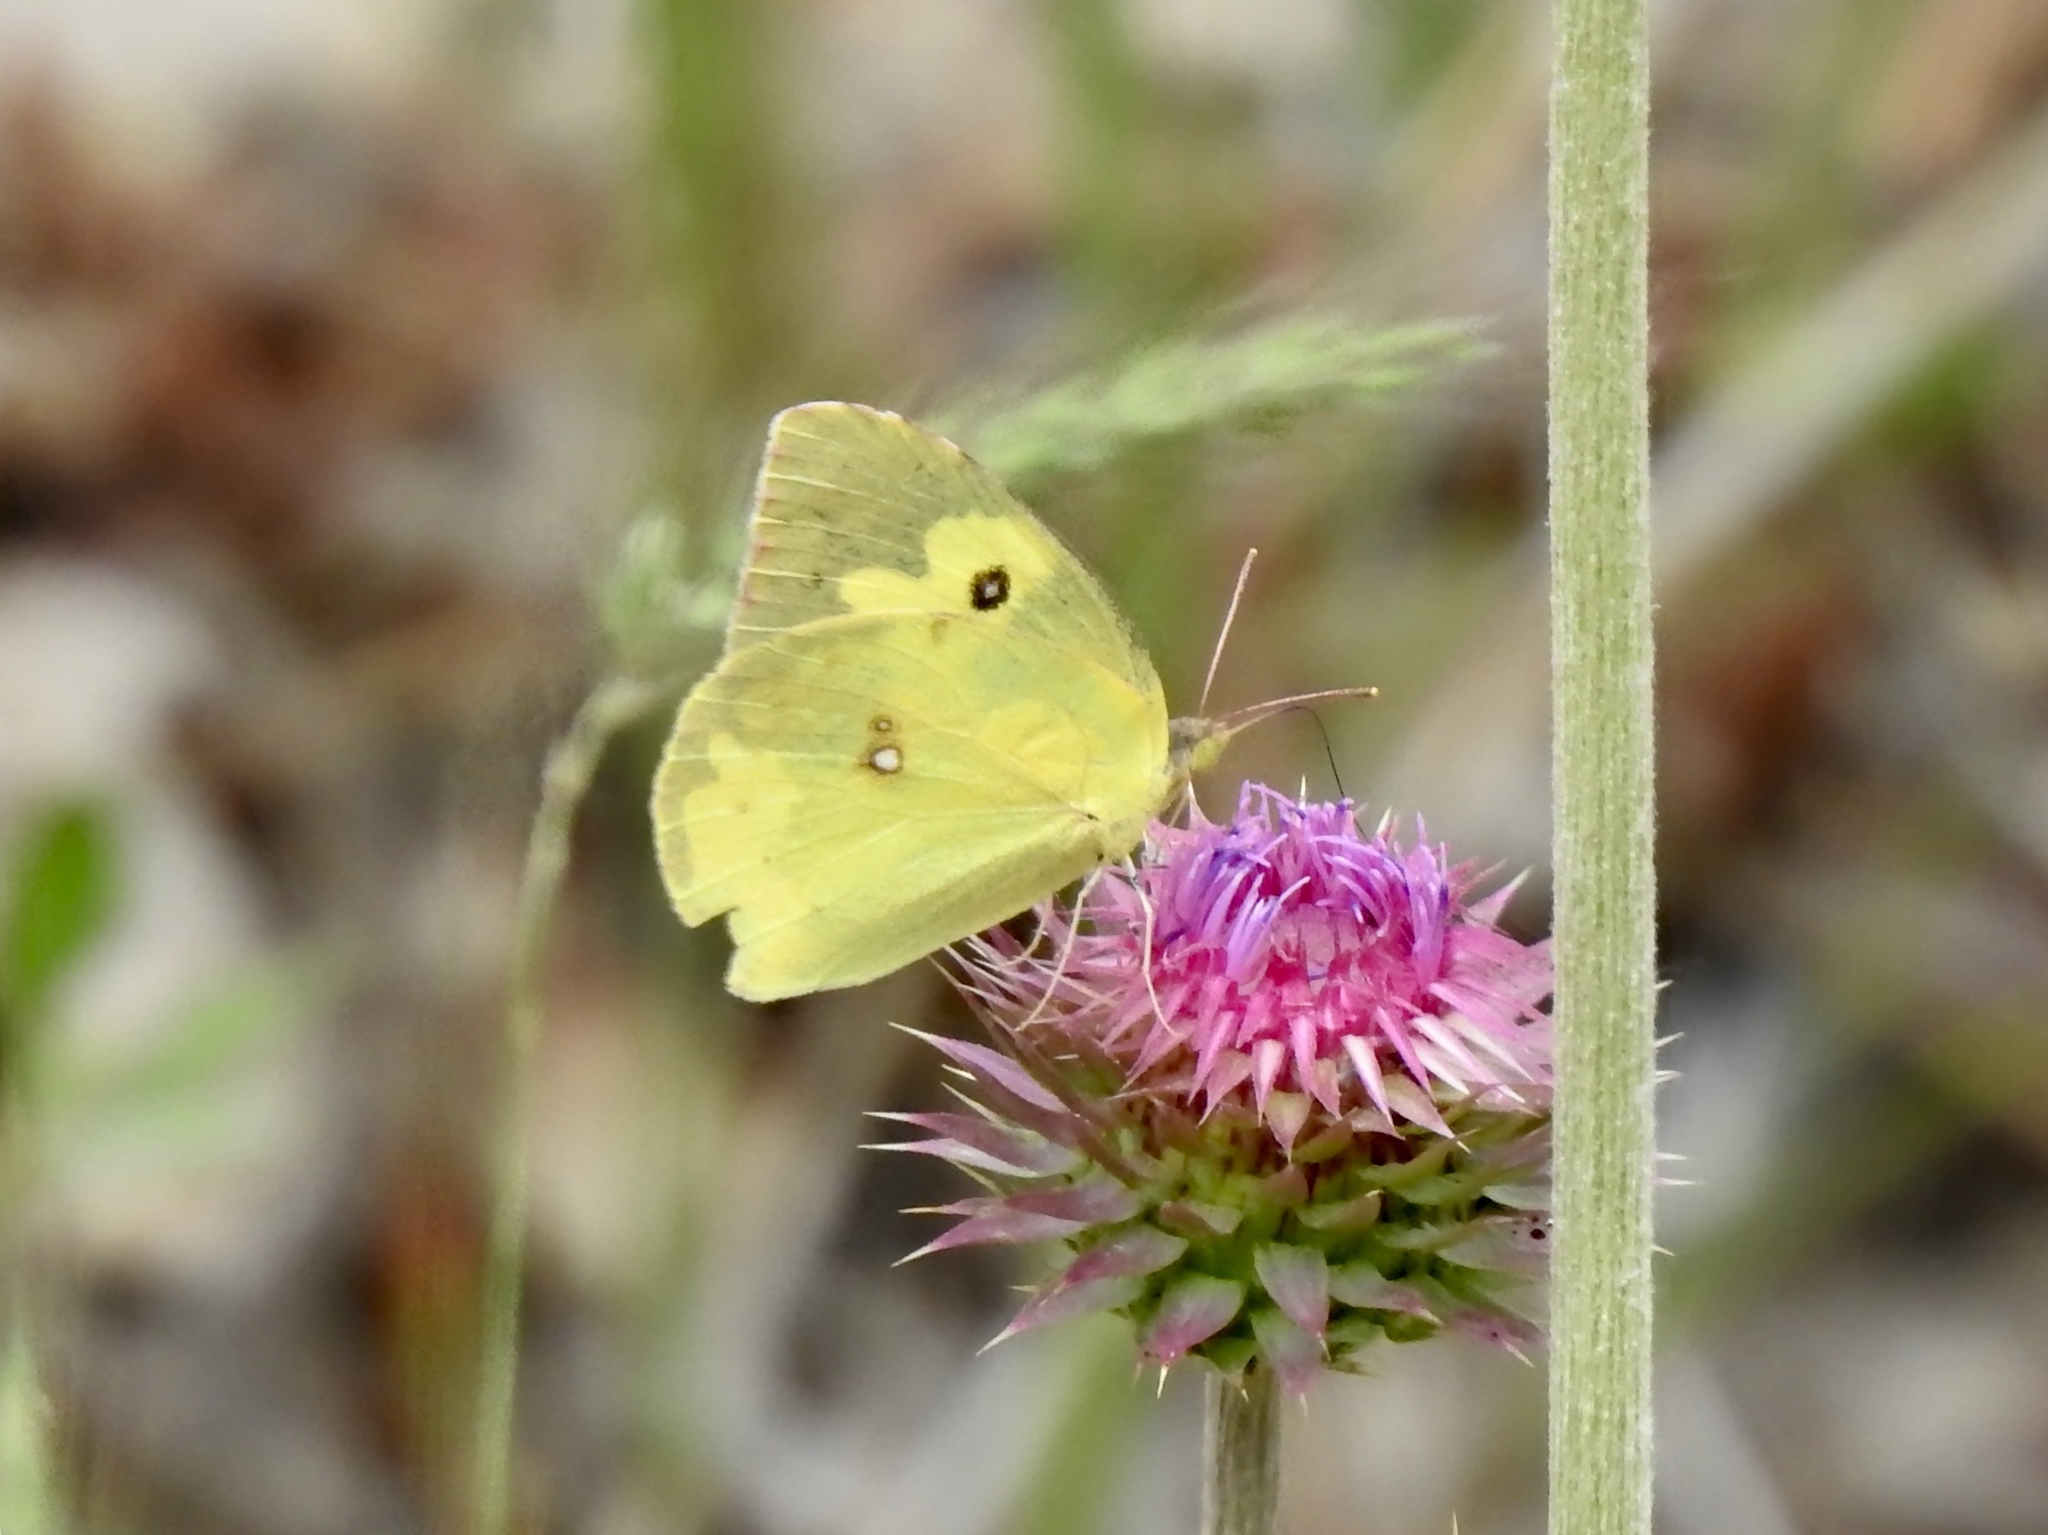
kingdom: Animalia
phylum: Arthropoda
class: Insecta
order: Lepidoptera
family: Pieridae
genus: Zerene
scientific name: Zerene cesonia
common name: Southern dogface
